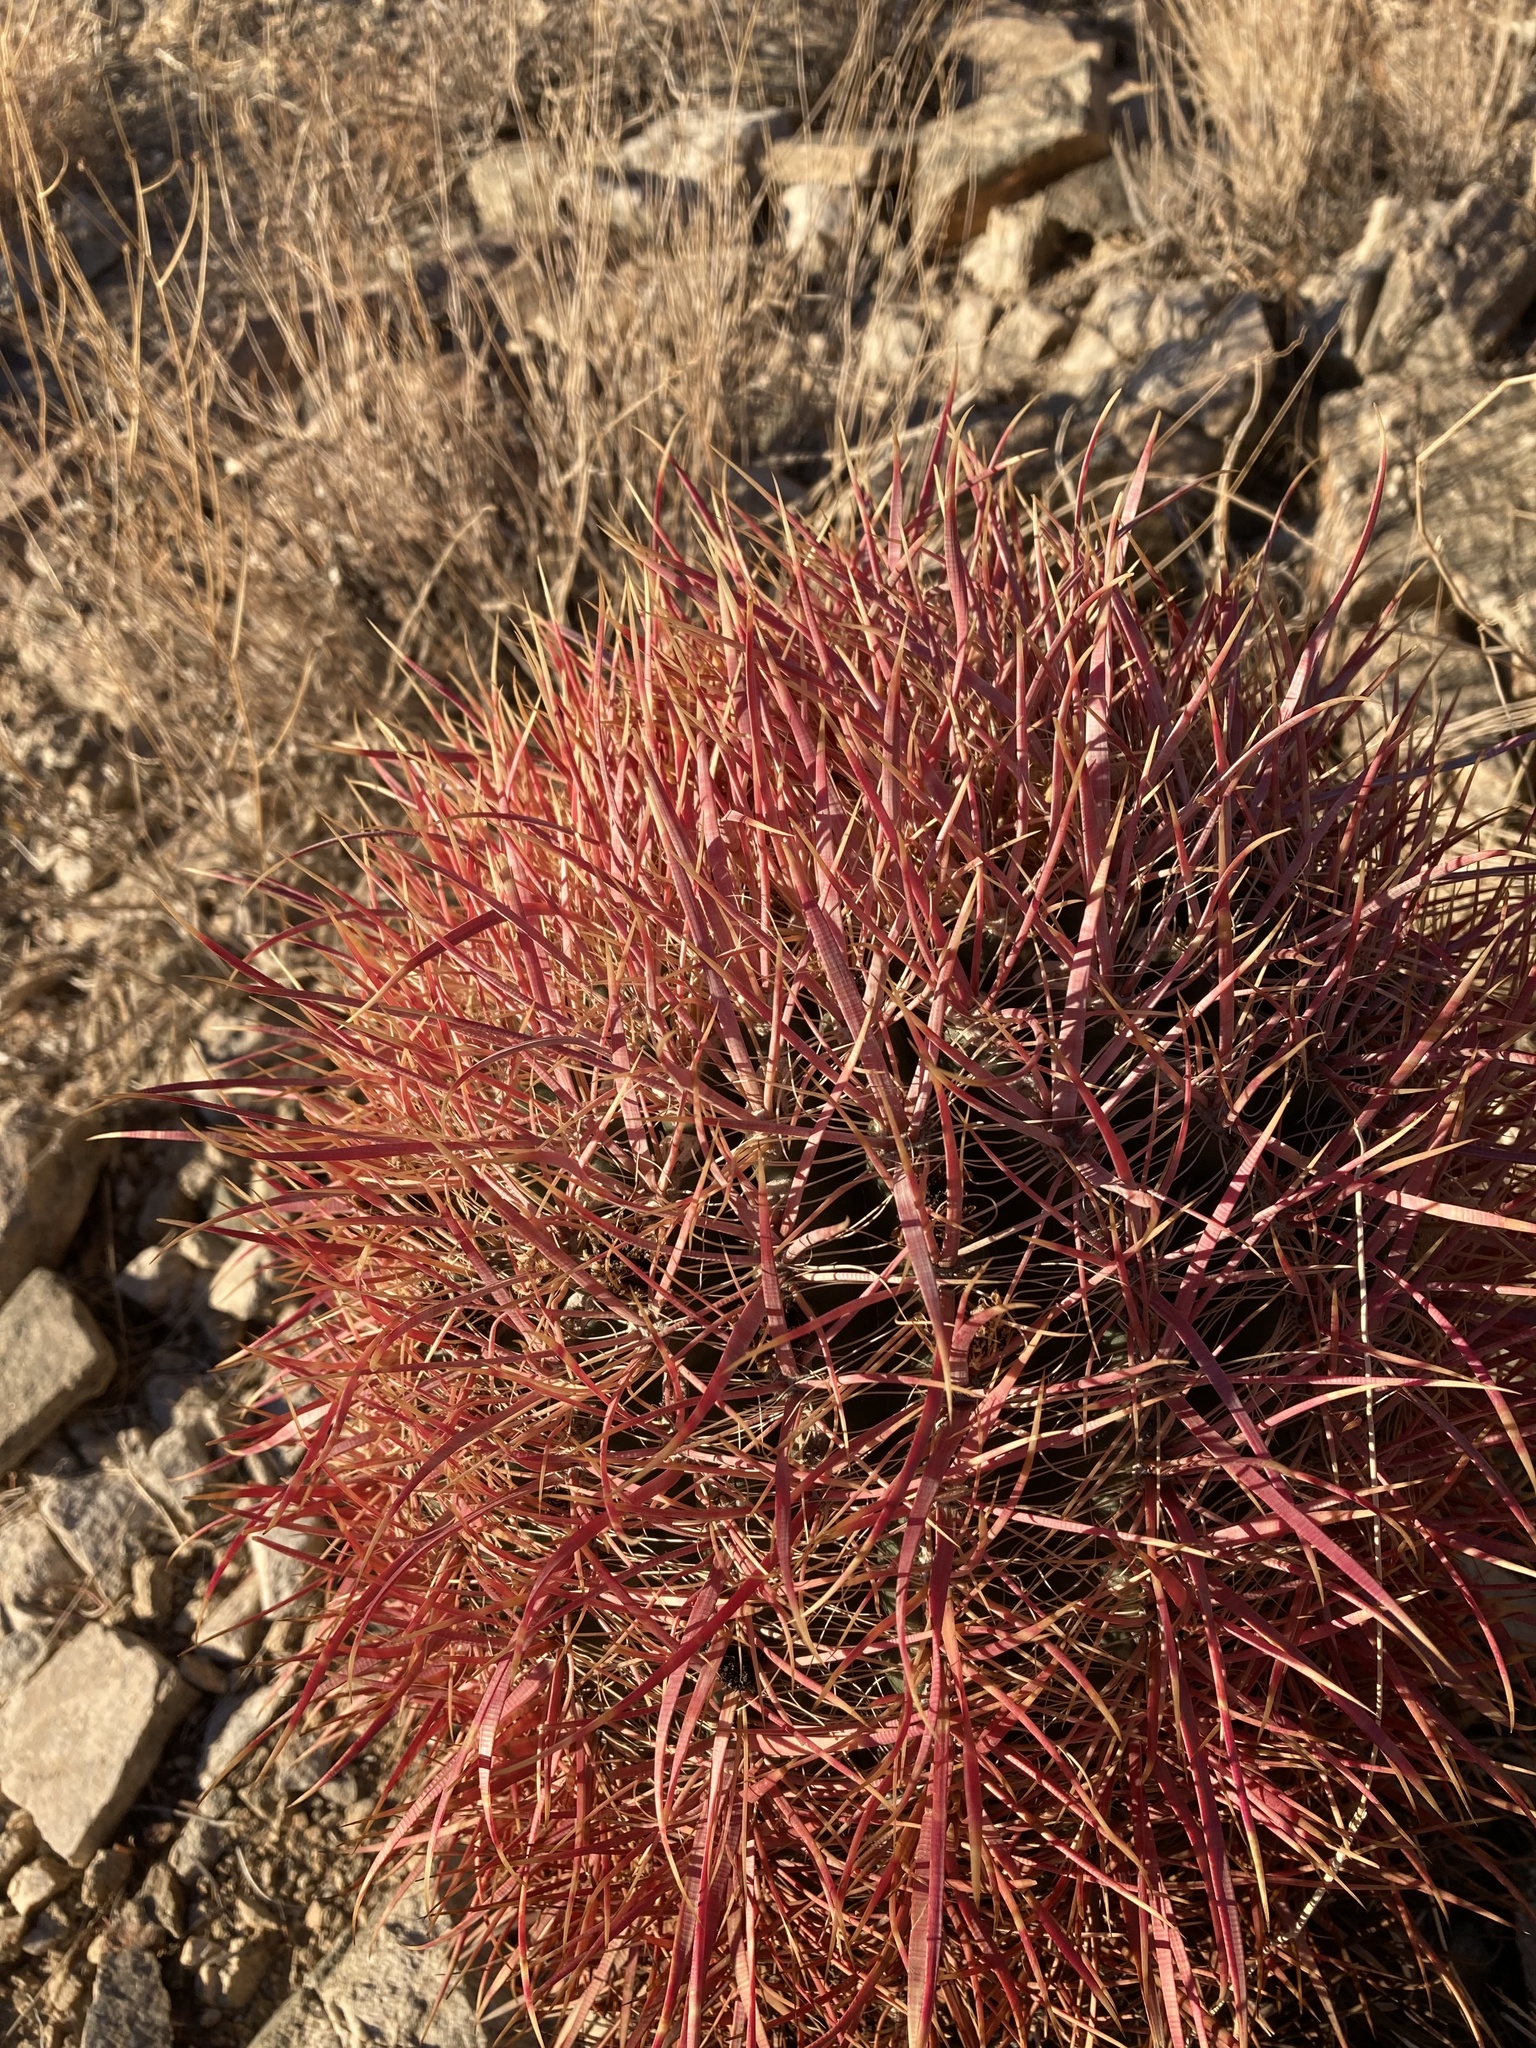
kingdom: Plantae
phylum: Tracheophyta
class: Magnoliopsida
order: Caryophyllales
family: Cactaceae
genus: Ferocactus
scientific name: Ferocactus cylindraceus
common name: California barrel cactus
